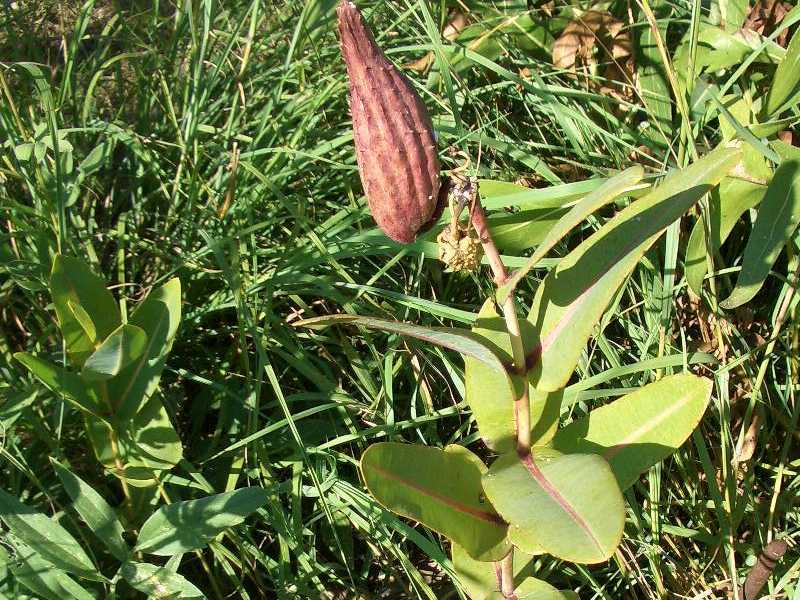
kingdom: Plantae
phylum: Tracheophyta
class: Magnoliopsida
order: Gentianales
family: Apocynaceae
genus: Asclepias
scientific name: Asclepias sullivantii
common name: Prairie milkweed
